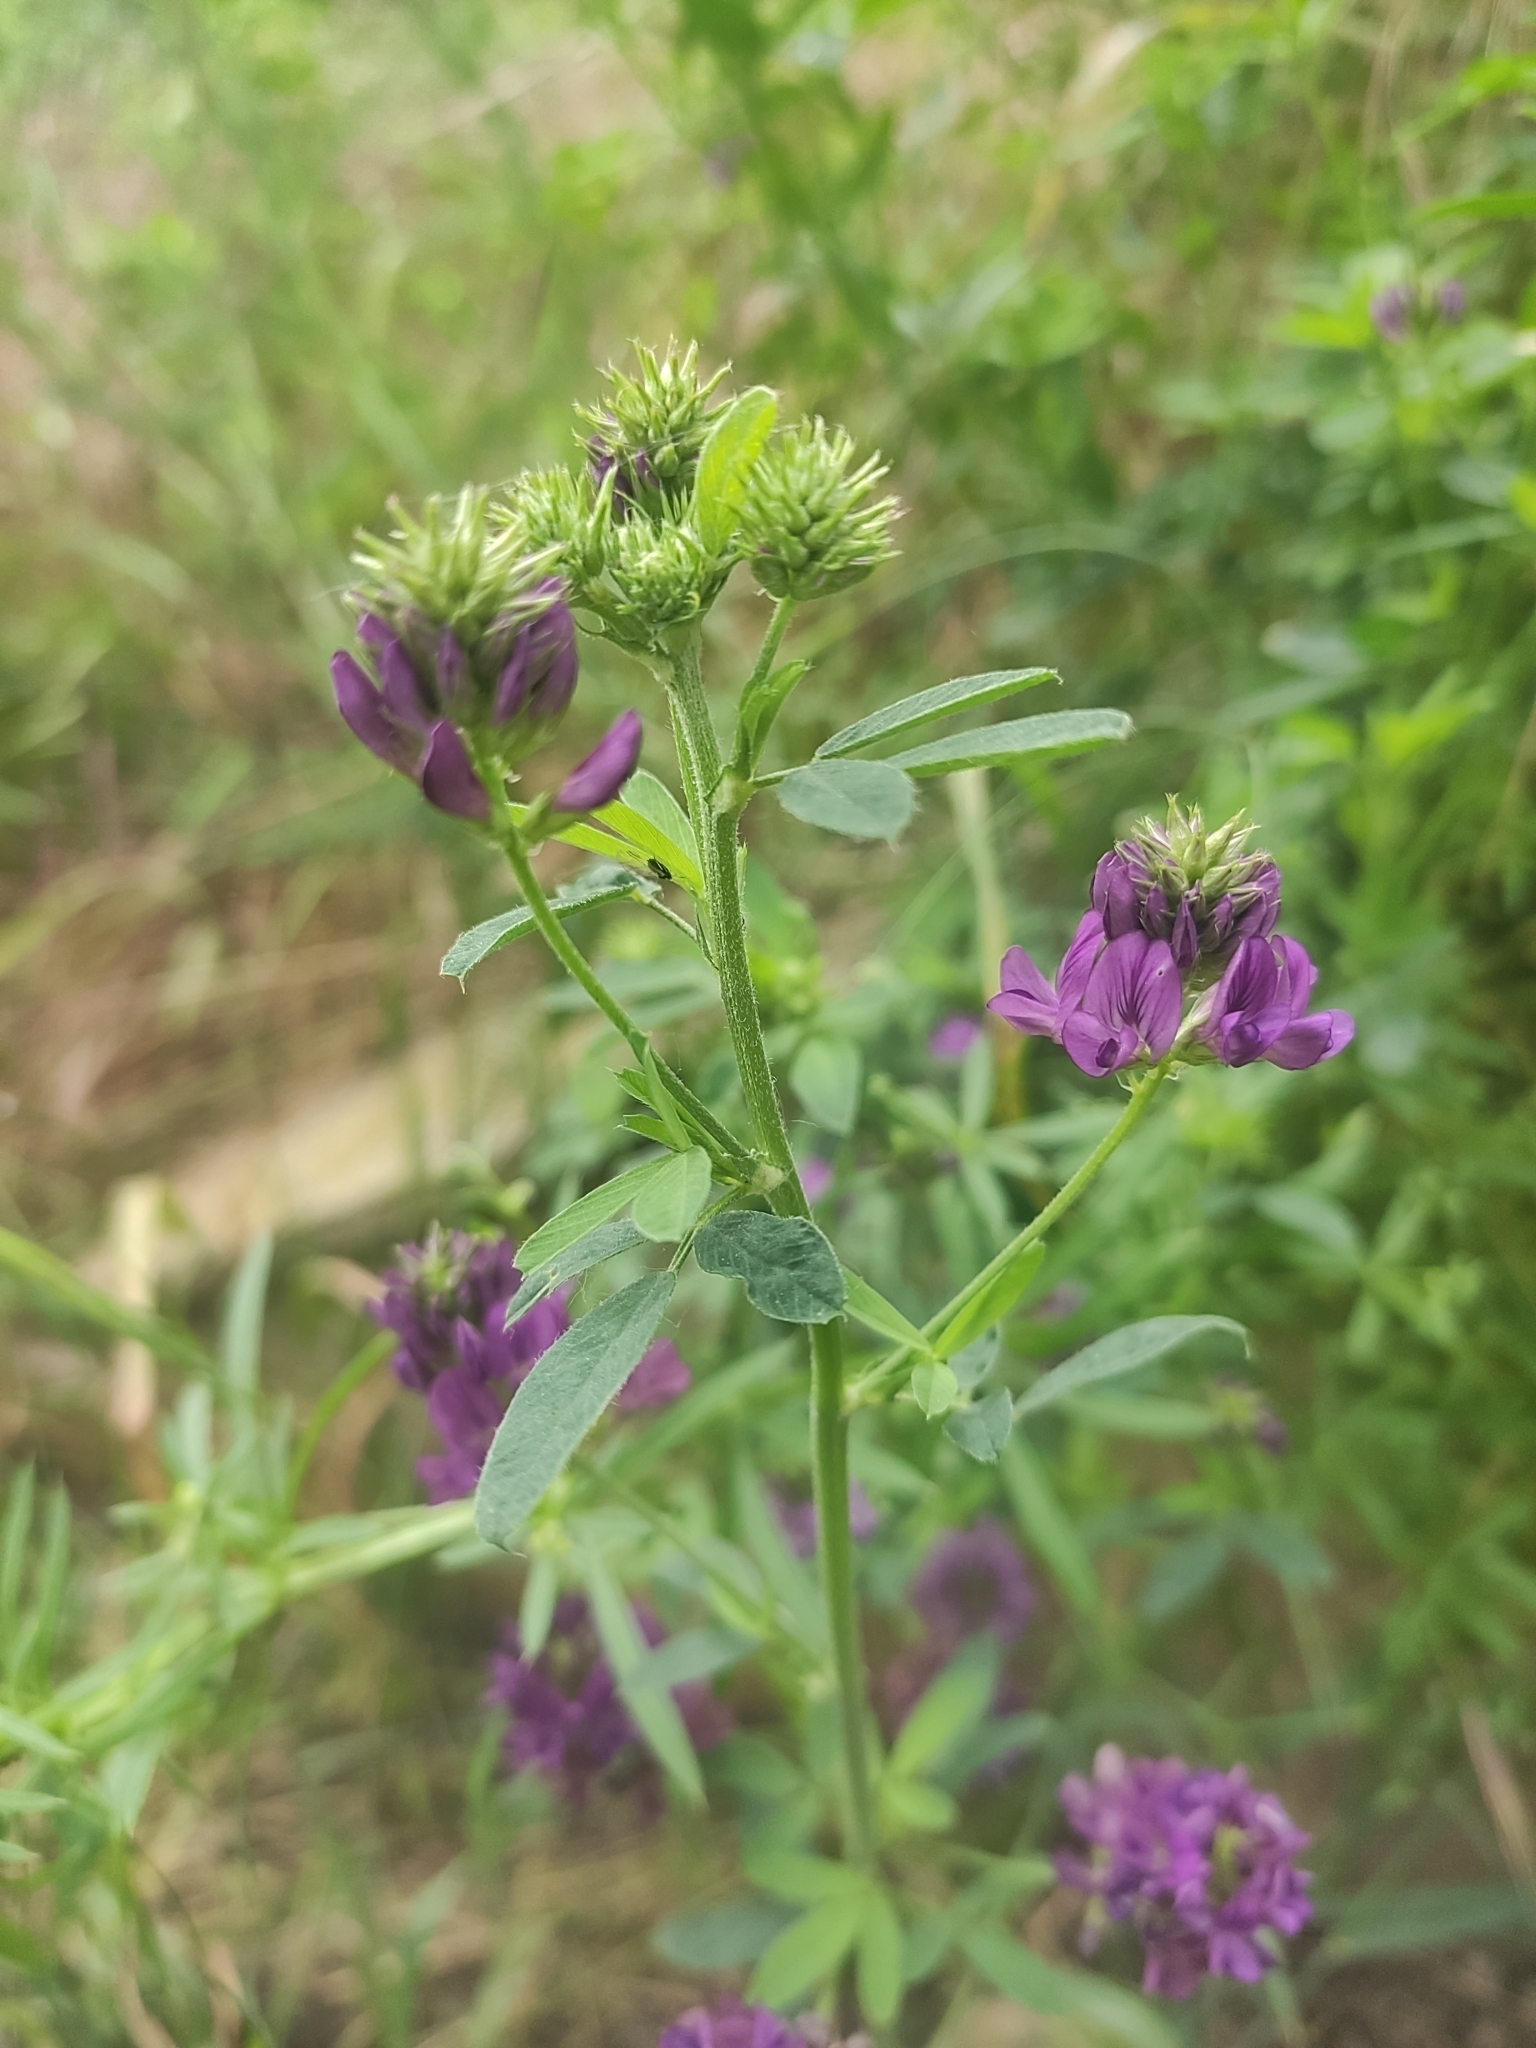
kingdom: Plantae
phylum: Tracheophyta
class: Magnoliopsida
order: Fabales
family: Fabaceae
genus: Medicago
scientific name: Medicago varia
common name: Sand lucerne
